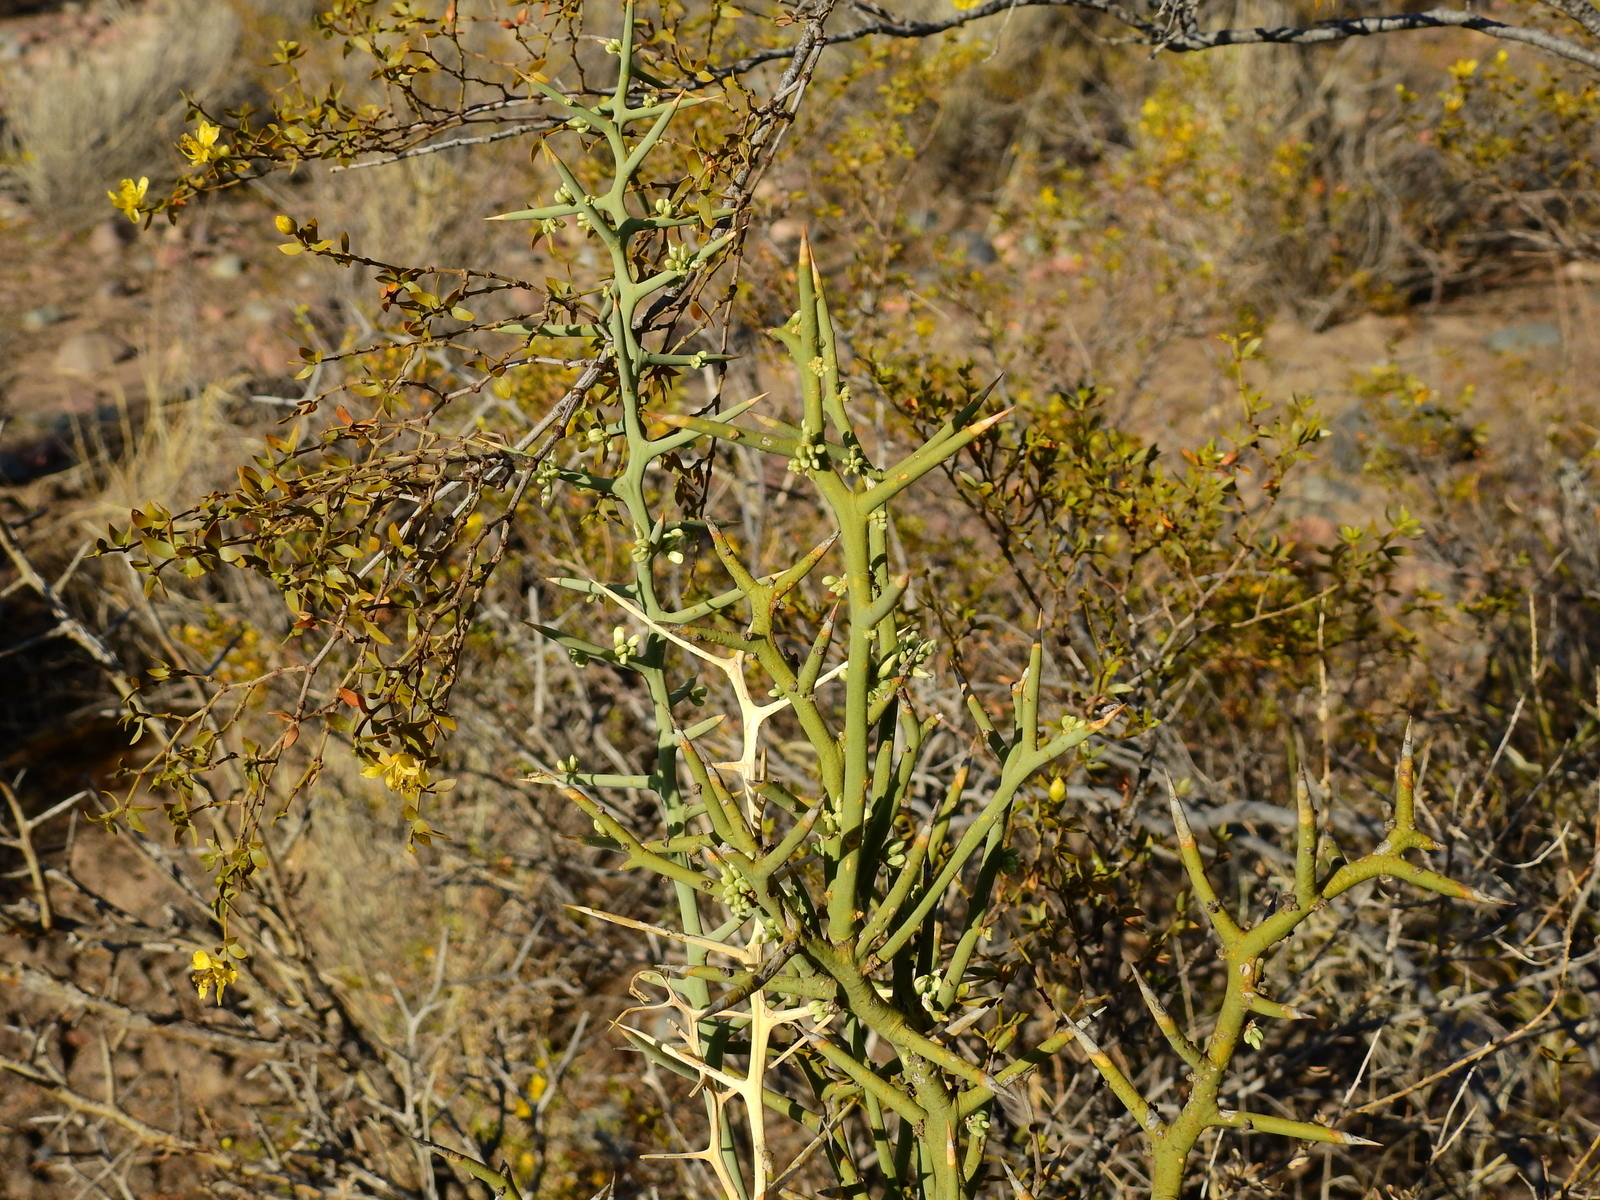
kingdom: Plantae
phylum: Tracheophyta
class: Magnoliopsida
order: Fabales
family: Polygalaceae
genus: Bredemeyera
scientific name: Bredemeyera colletioides
